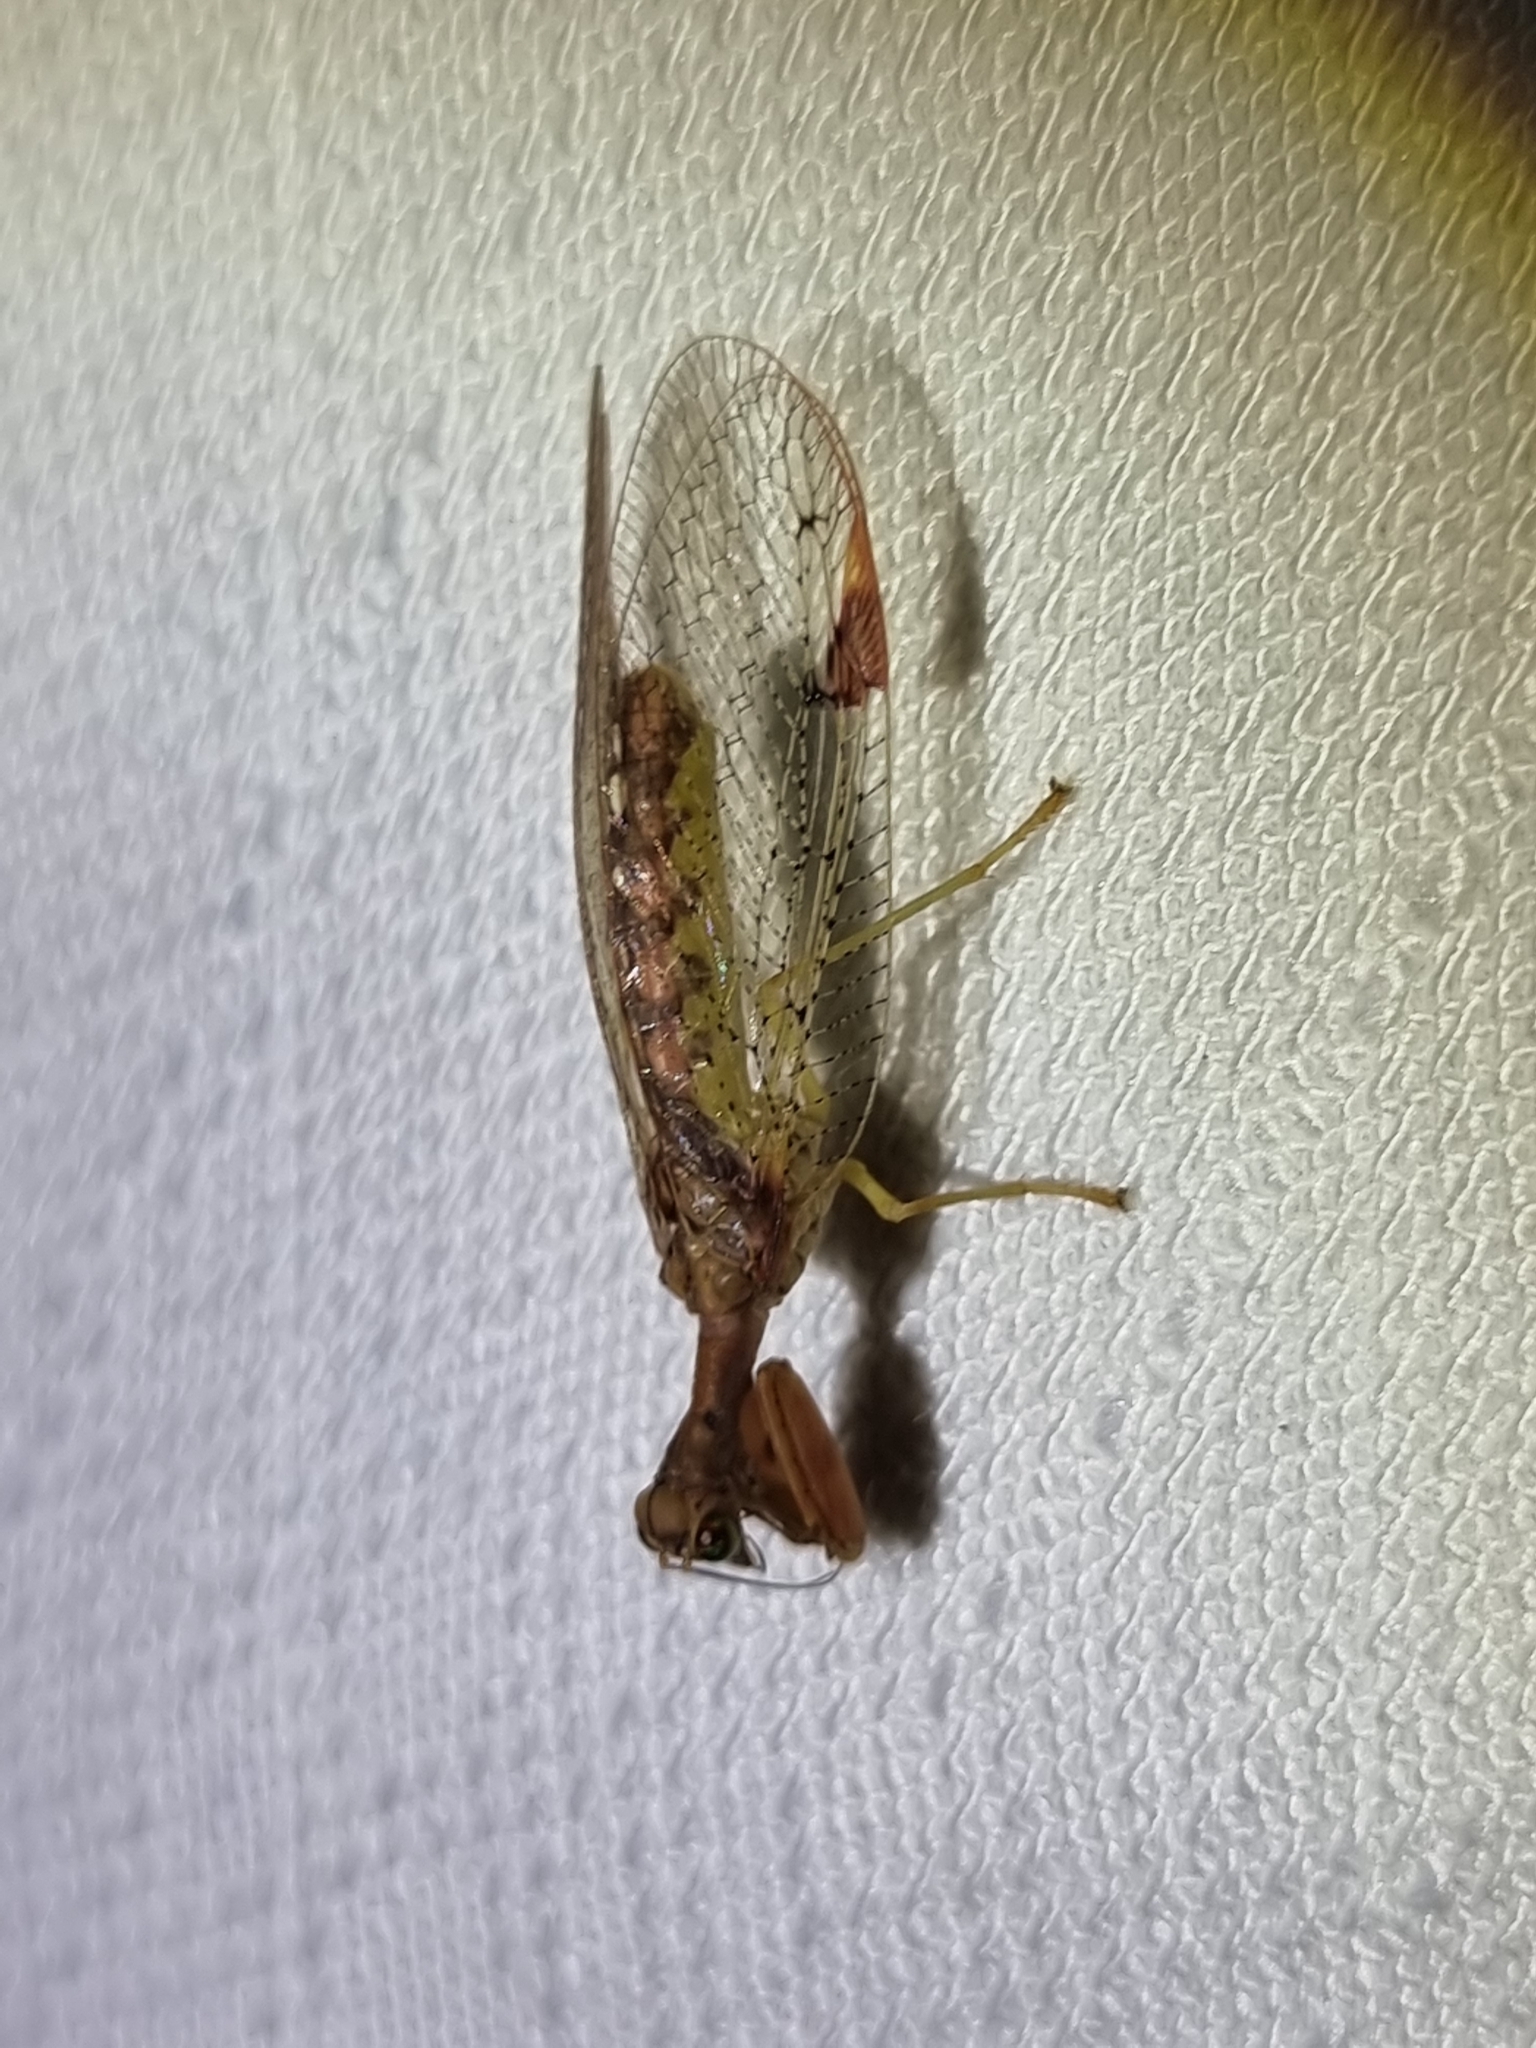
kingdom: Animalia
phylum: Arthropoda
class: Insecta
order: Neuroptera
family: Mantispidae
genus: Ditaxis
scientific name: Ditaxis biseriata
